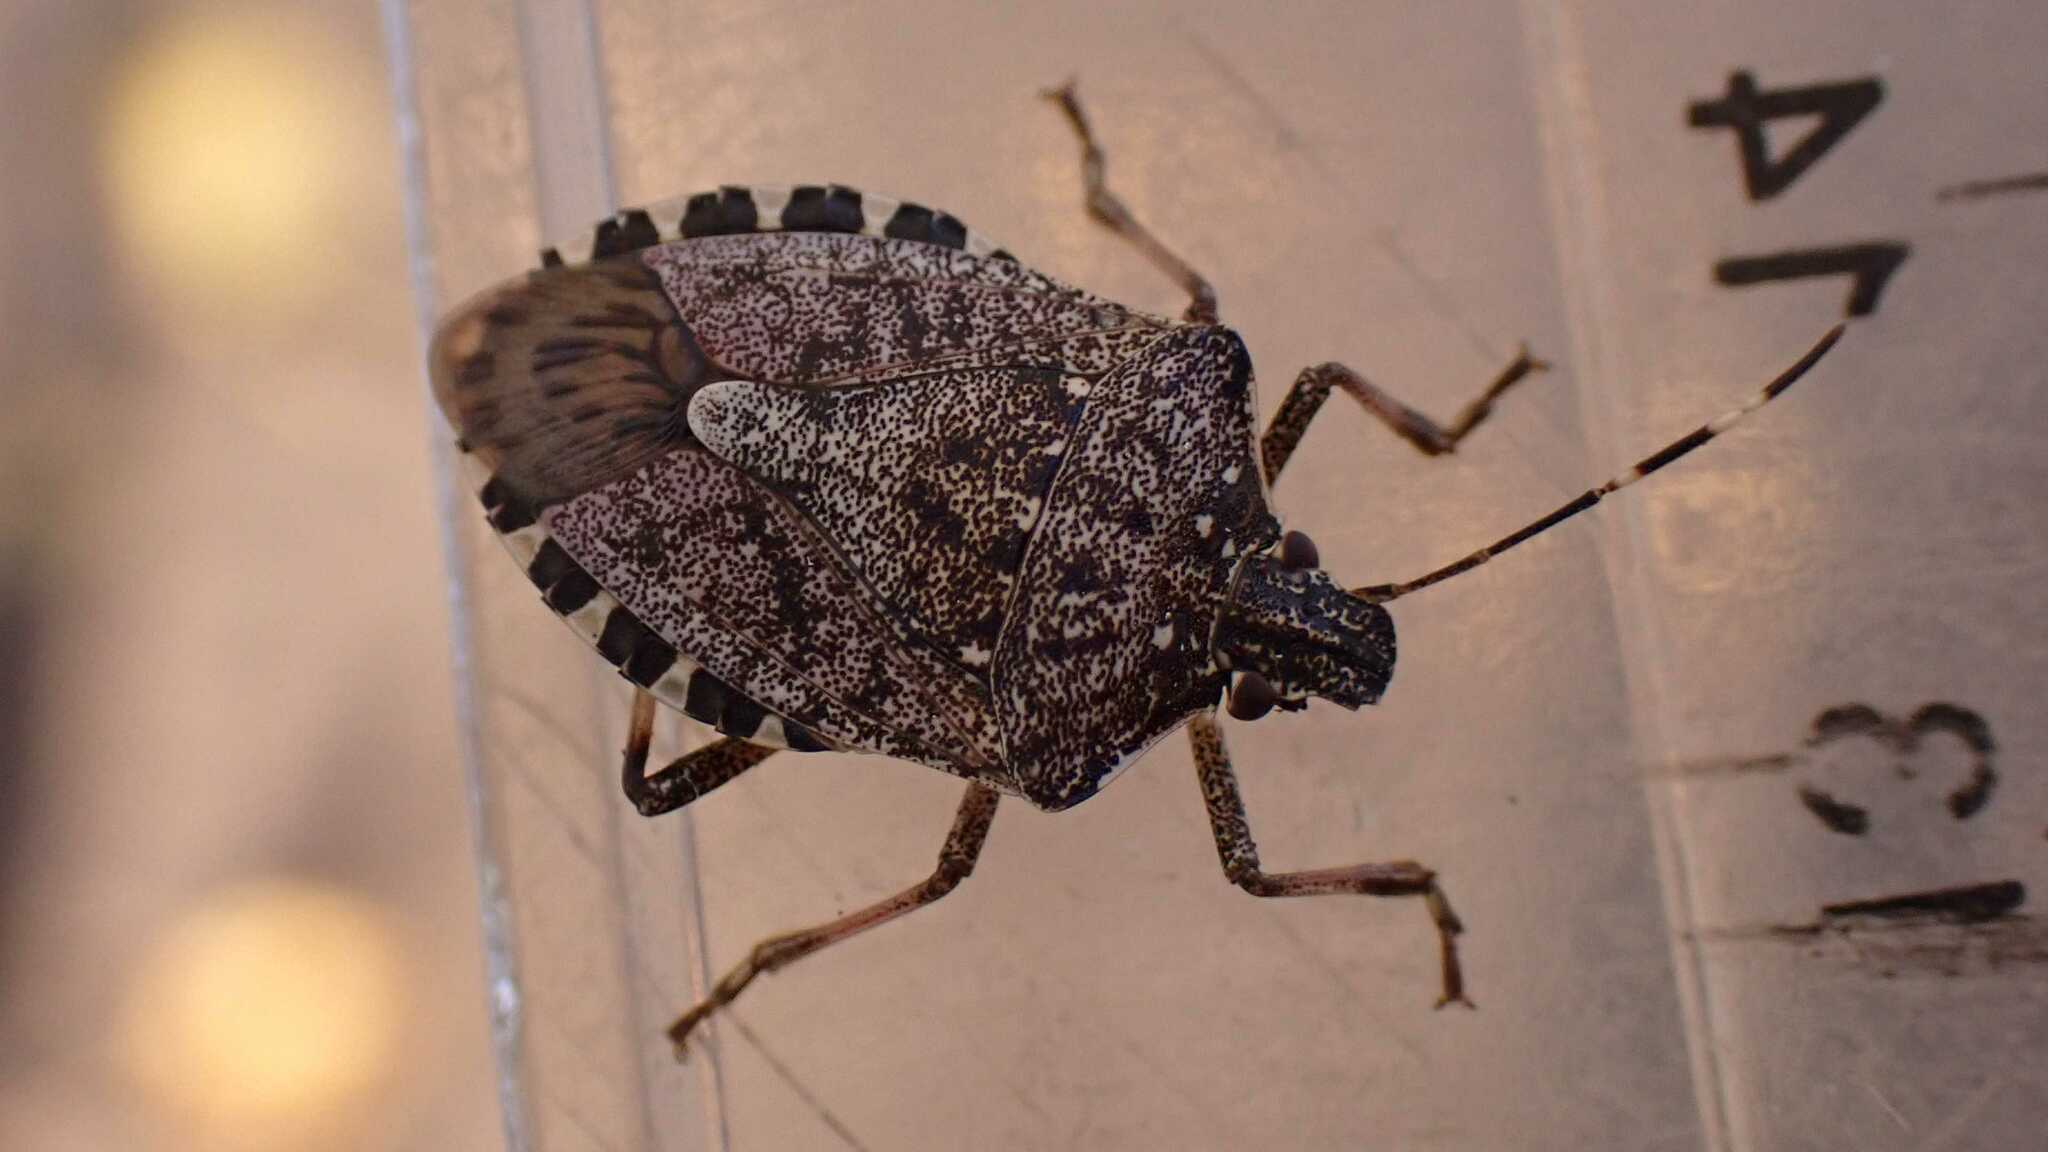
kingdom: Animalia
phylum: Arthropoda
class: Insecta
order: Hemiptera
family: Pentatomidae
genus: Halyomorpha
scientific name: Halyomorpha halys
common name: Brown marmorated stink bug
